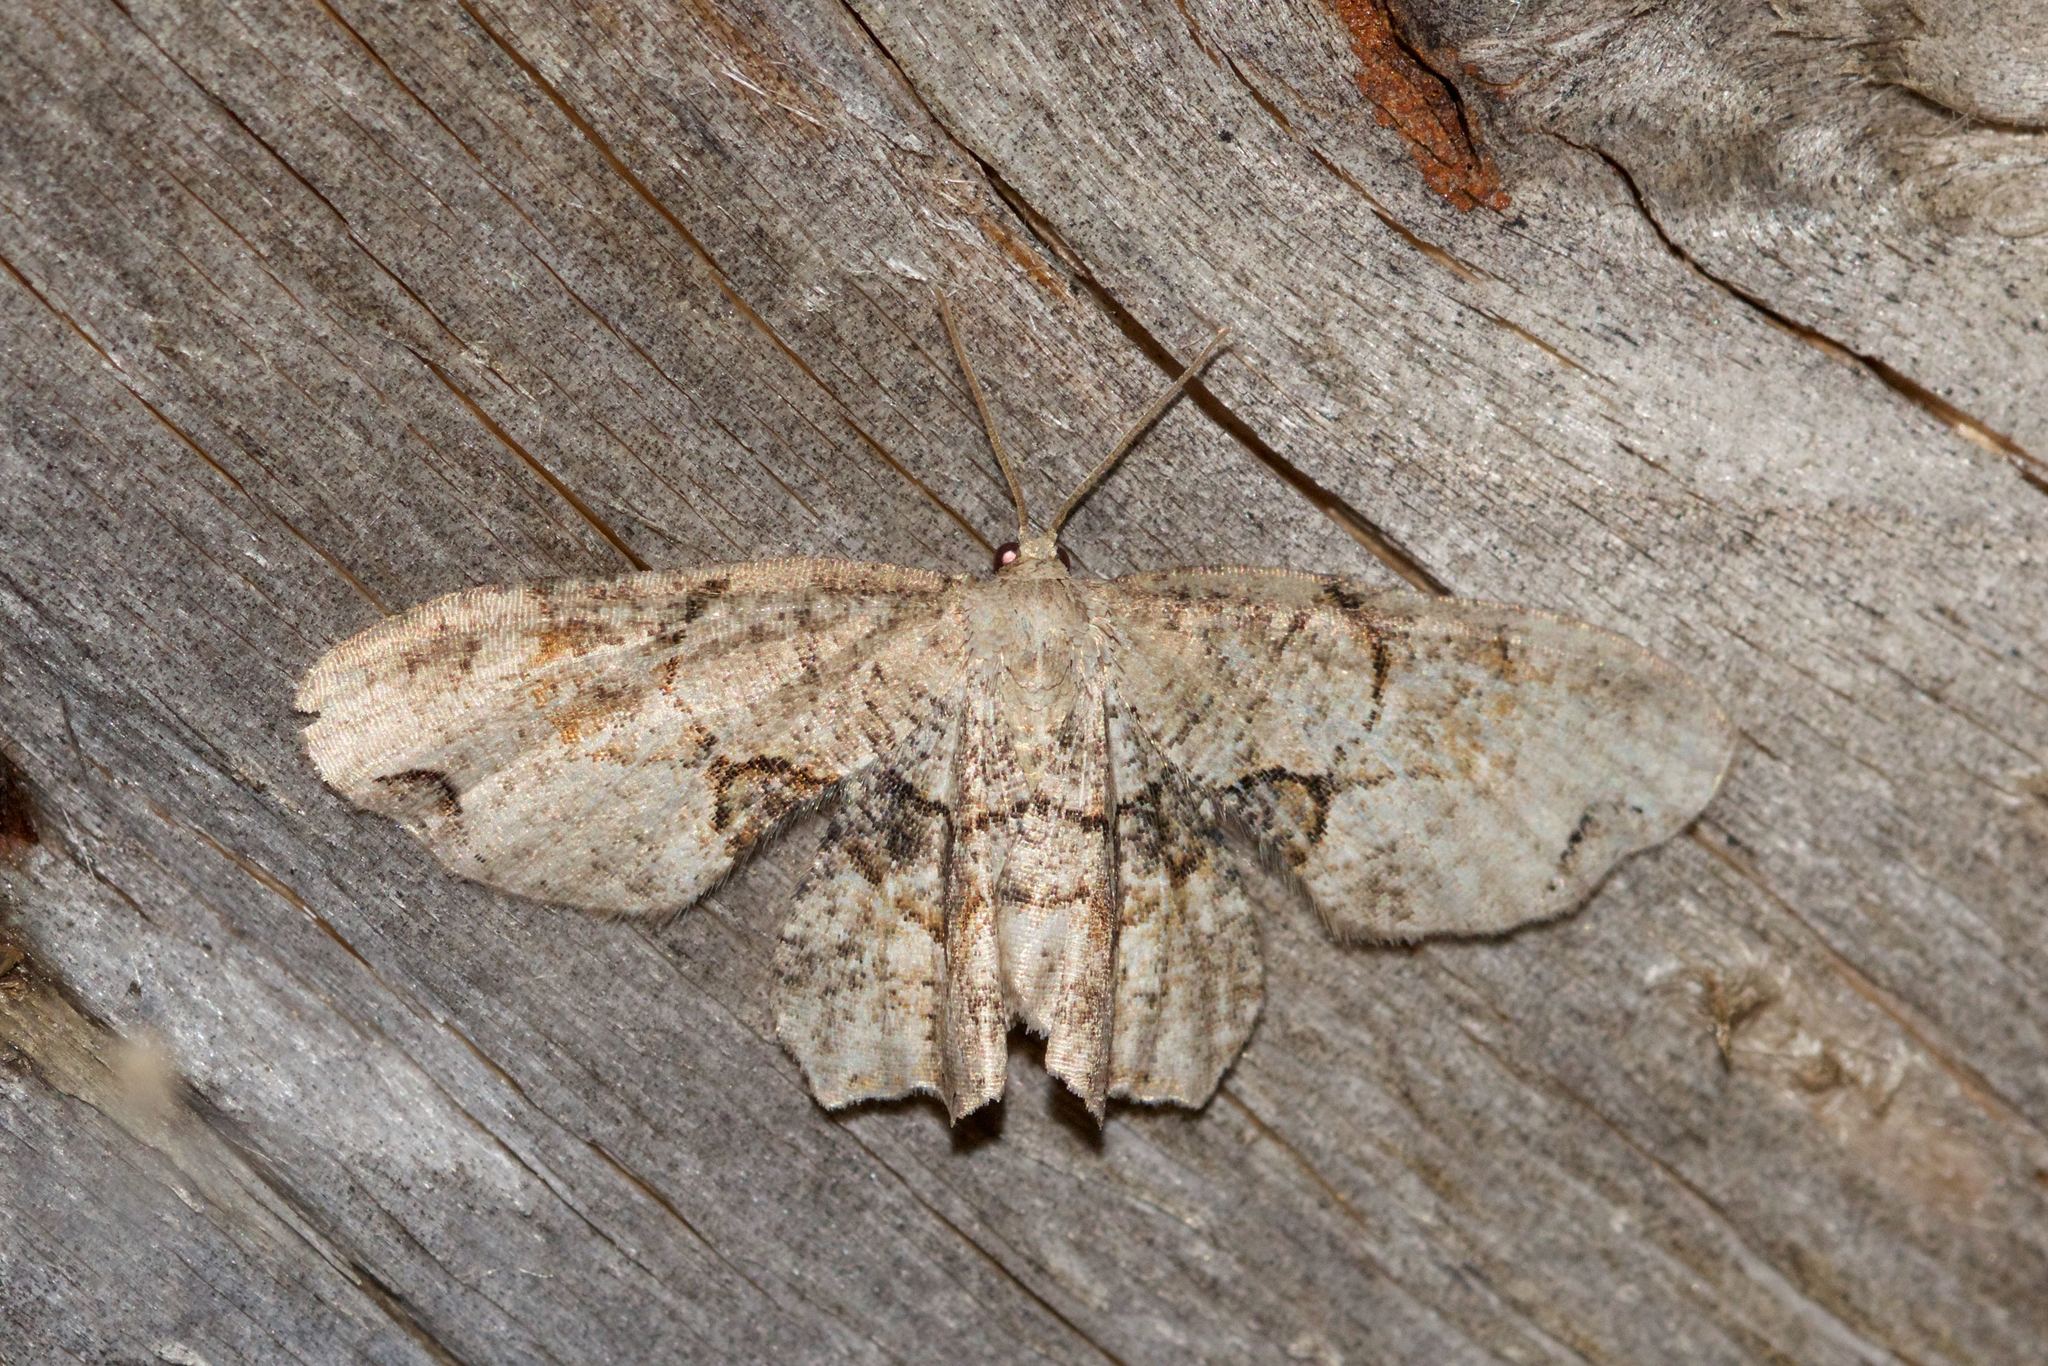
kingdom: Animalia
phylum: Arthropoda
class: Insecta
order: Lepidoptera
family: Uraniidae
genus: Epiplema
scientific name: Epiplema Callizzia amorata
